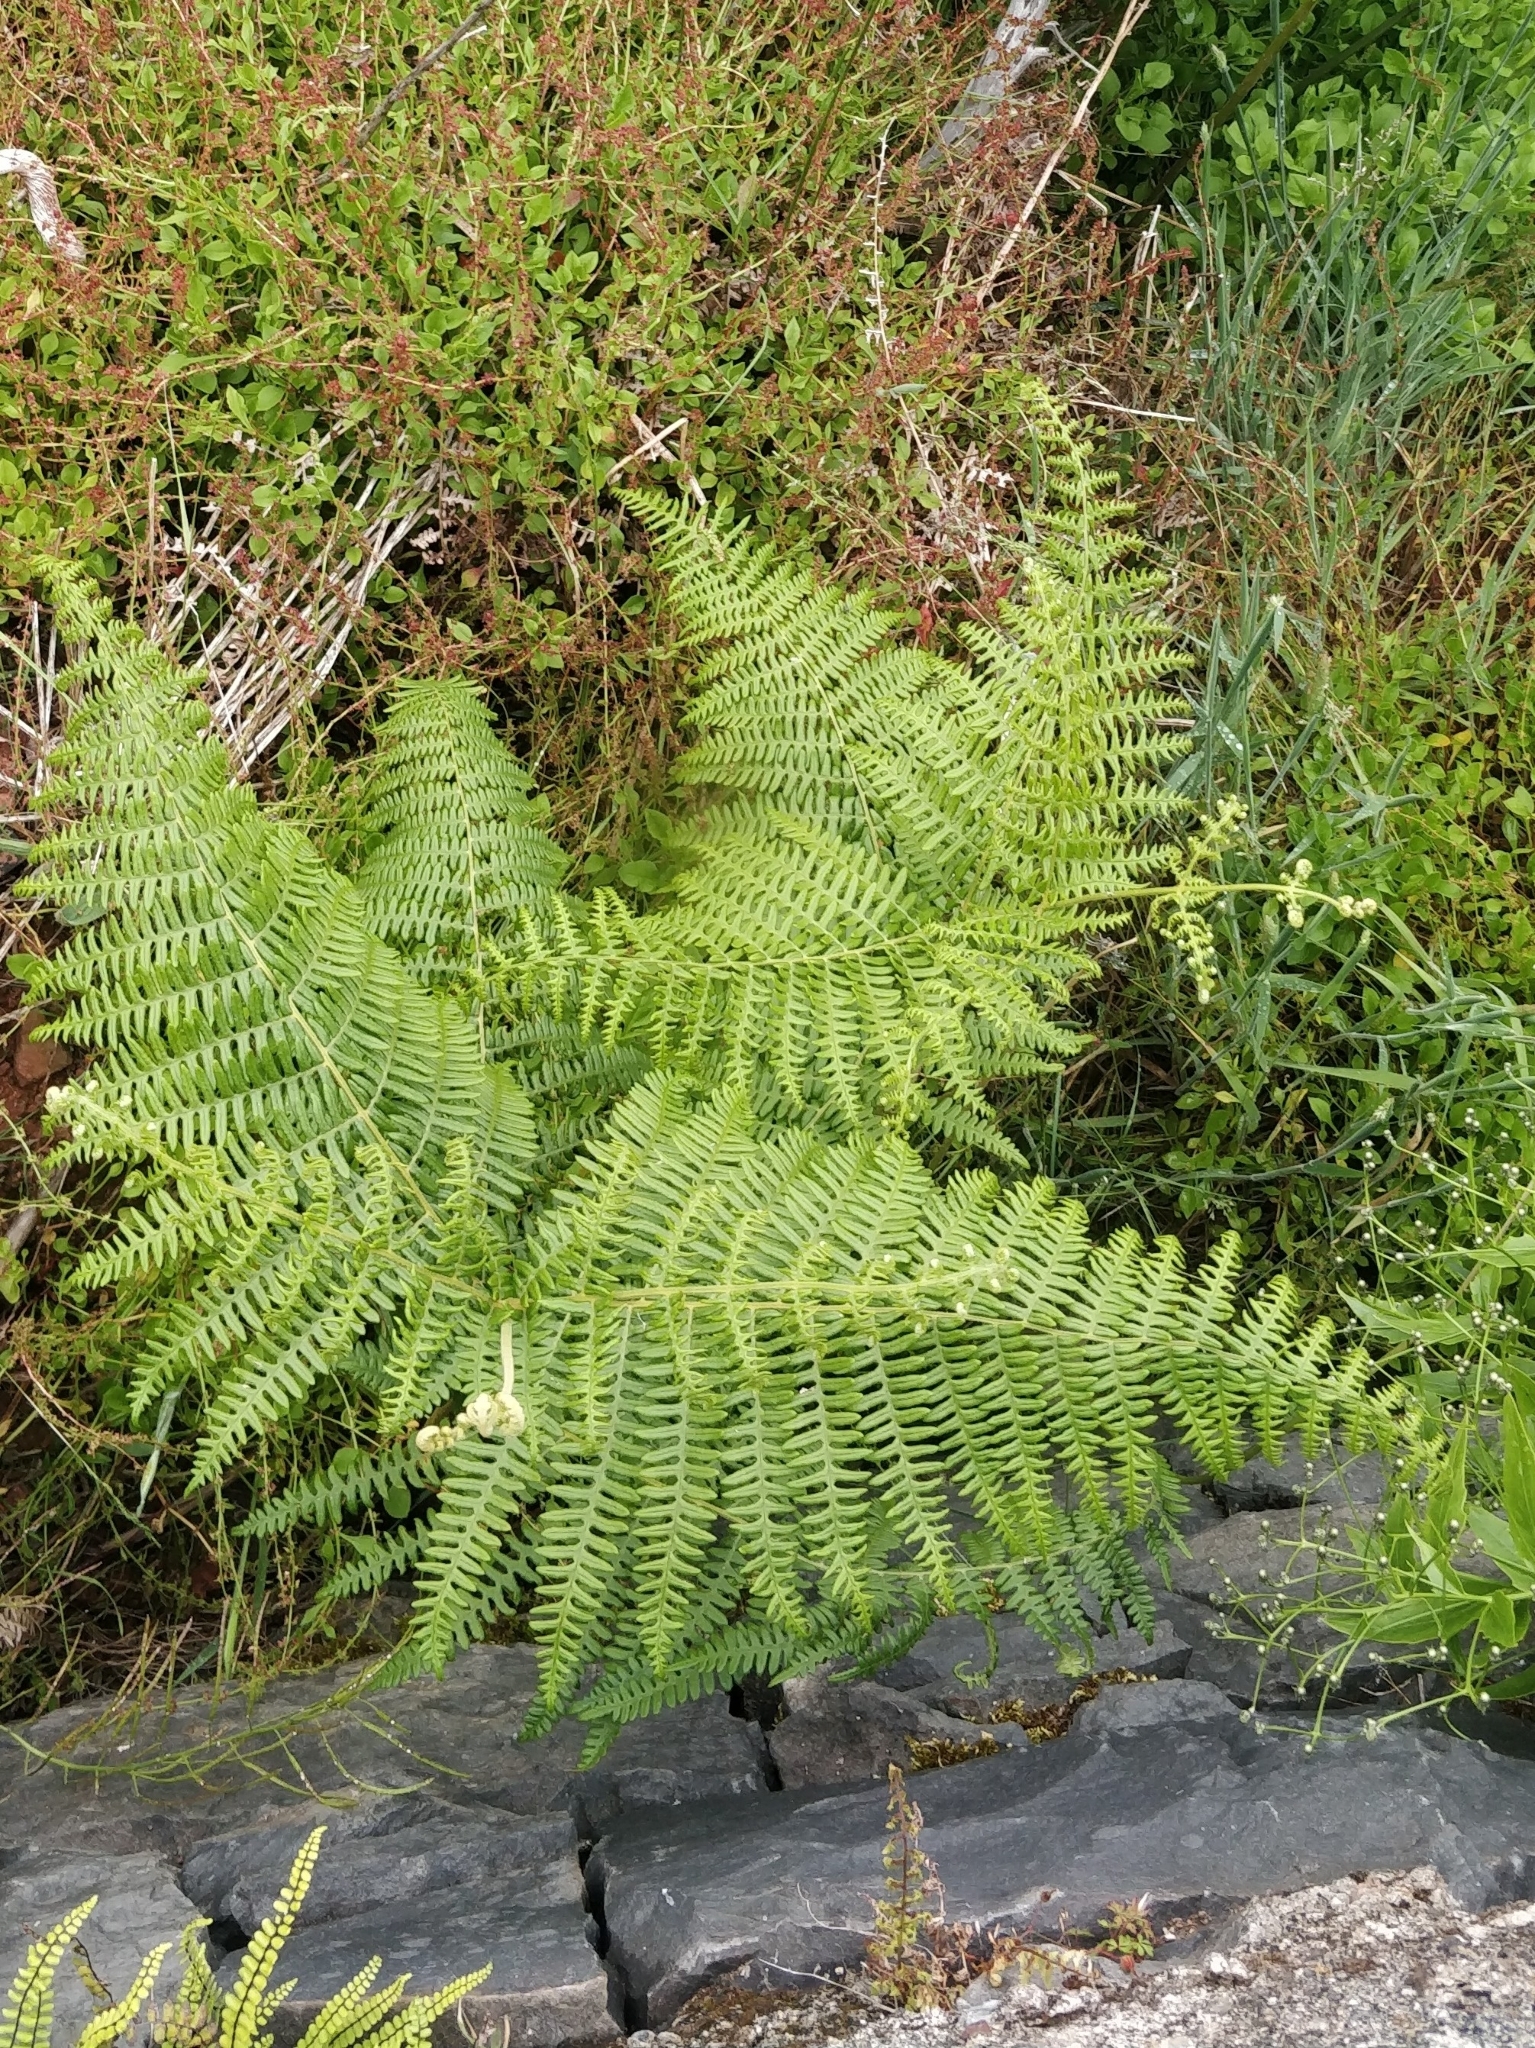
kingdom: Plantae
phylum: Tracheophyta
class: Polypodiopsida
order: Polypodiales
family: Dennstaedtiaceae
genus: Pteridium
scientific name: Pteridium aquilinum
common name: Bracken
